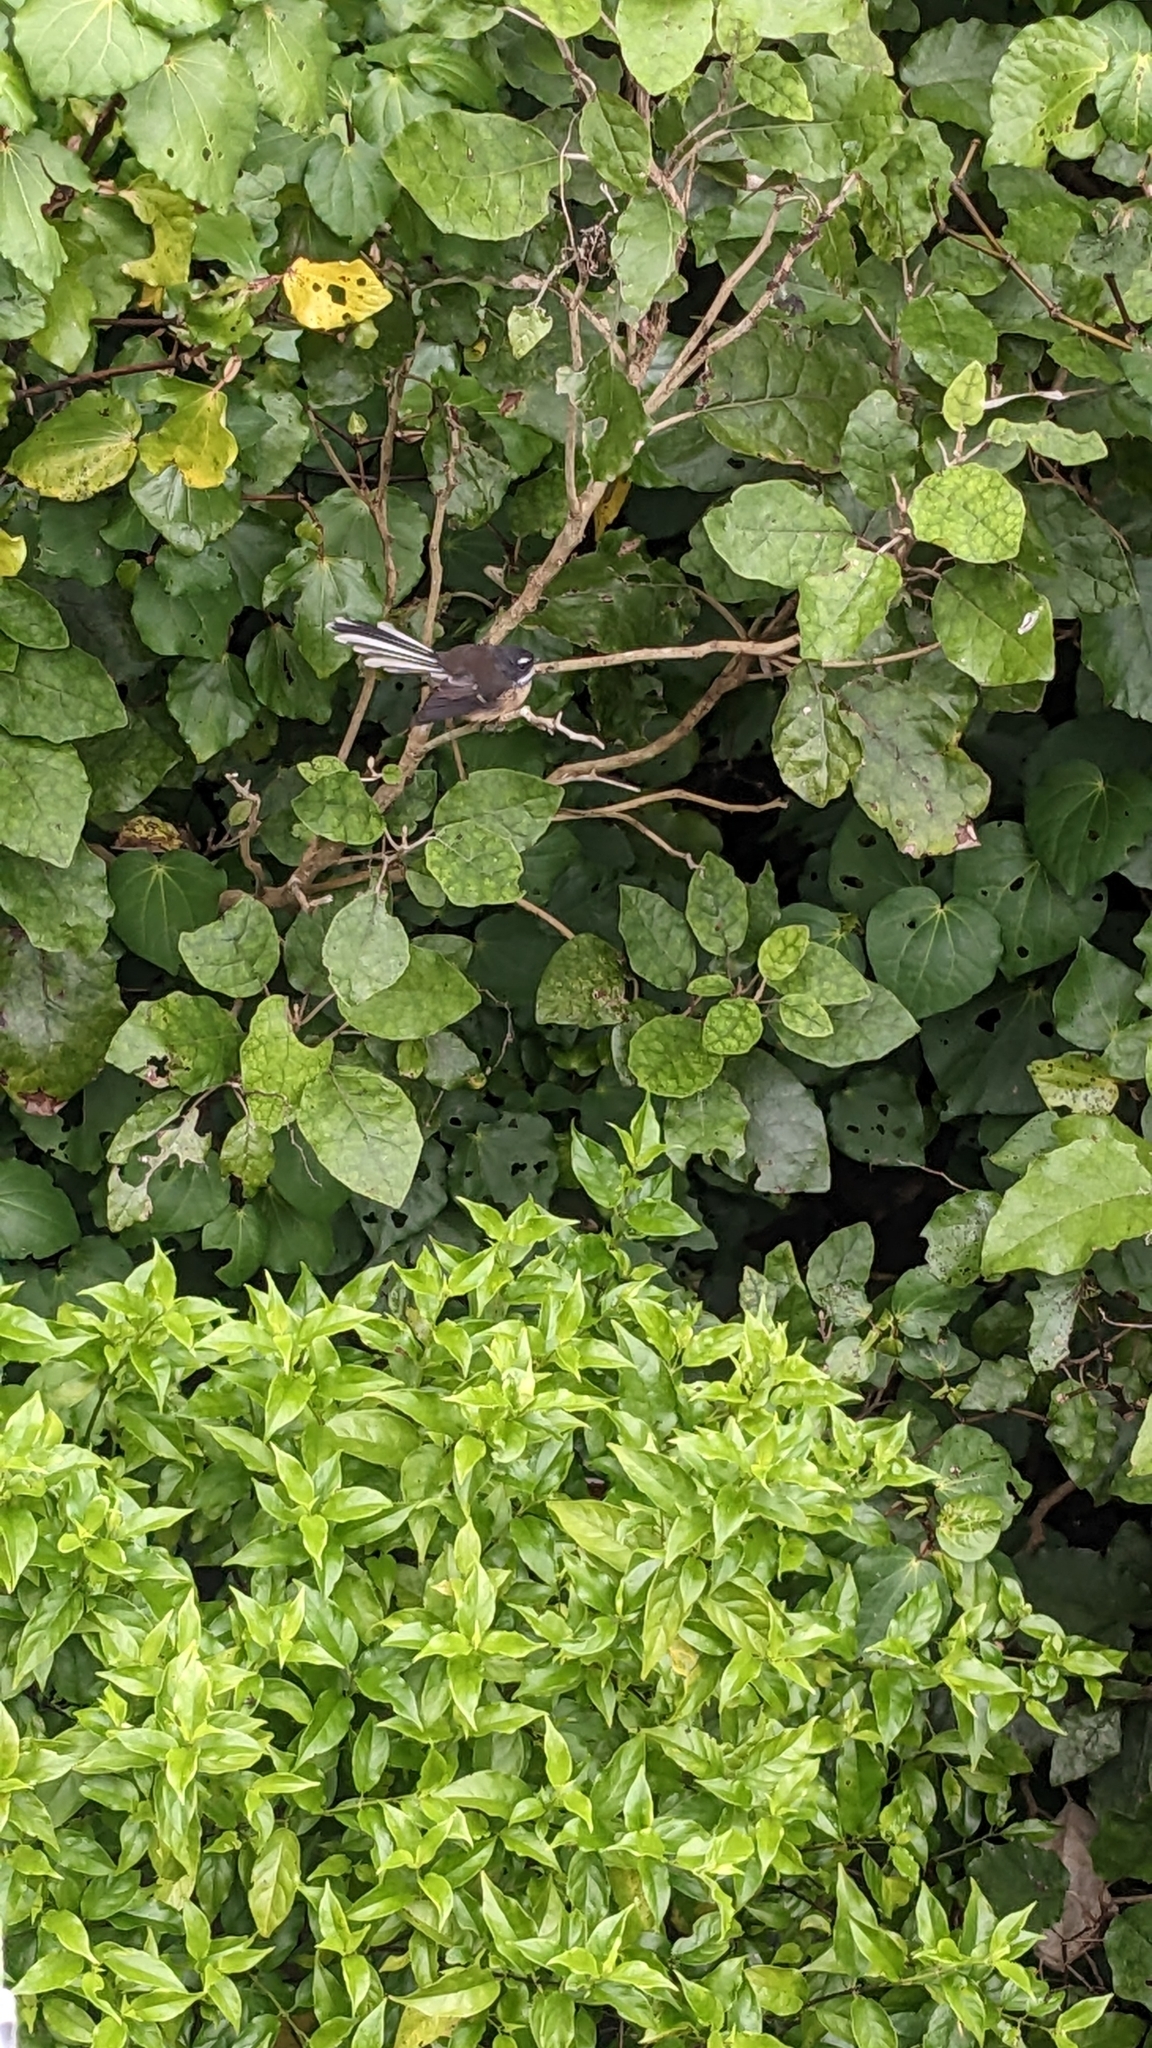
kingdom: Animalia
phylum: Chordata
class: Aves
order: Passeriformes
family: Rhipiduridae
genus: Rhipidura
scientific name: Rhipidura fuliginosa
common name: New zealand fantail
